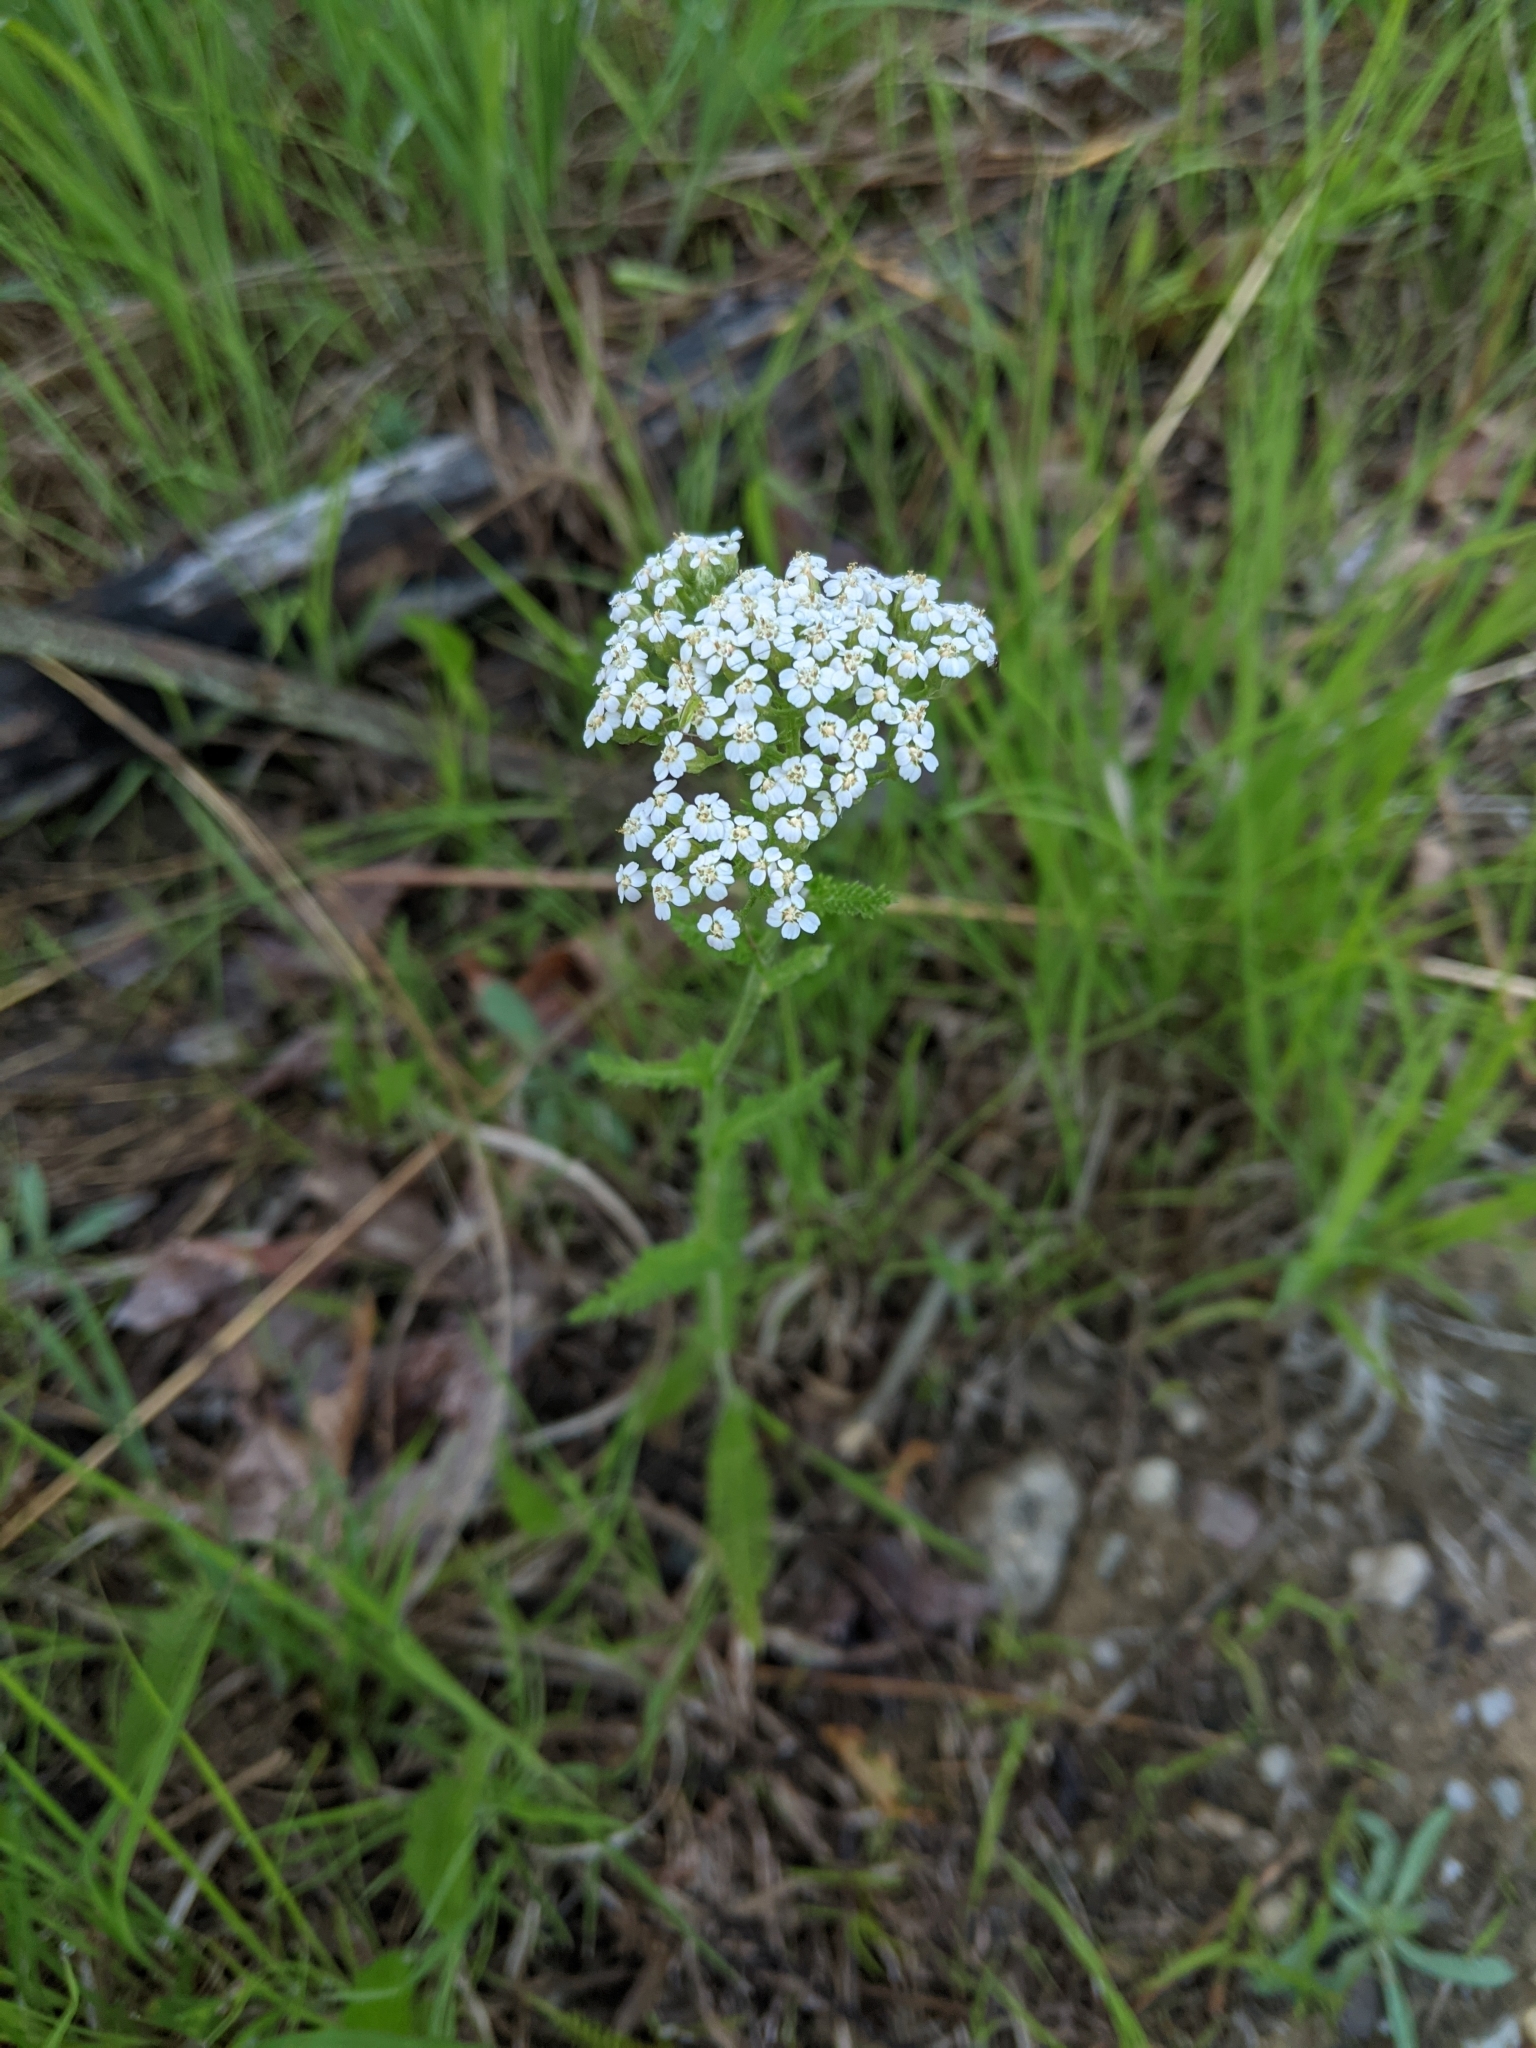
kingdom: Plantae
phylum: Tracheophyta
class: Magnoliopsida
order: Asterales
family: Asteraceae
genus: Achillea
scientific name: Achillea millefolium
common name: Yarrow
